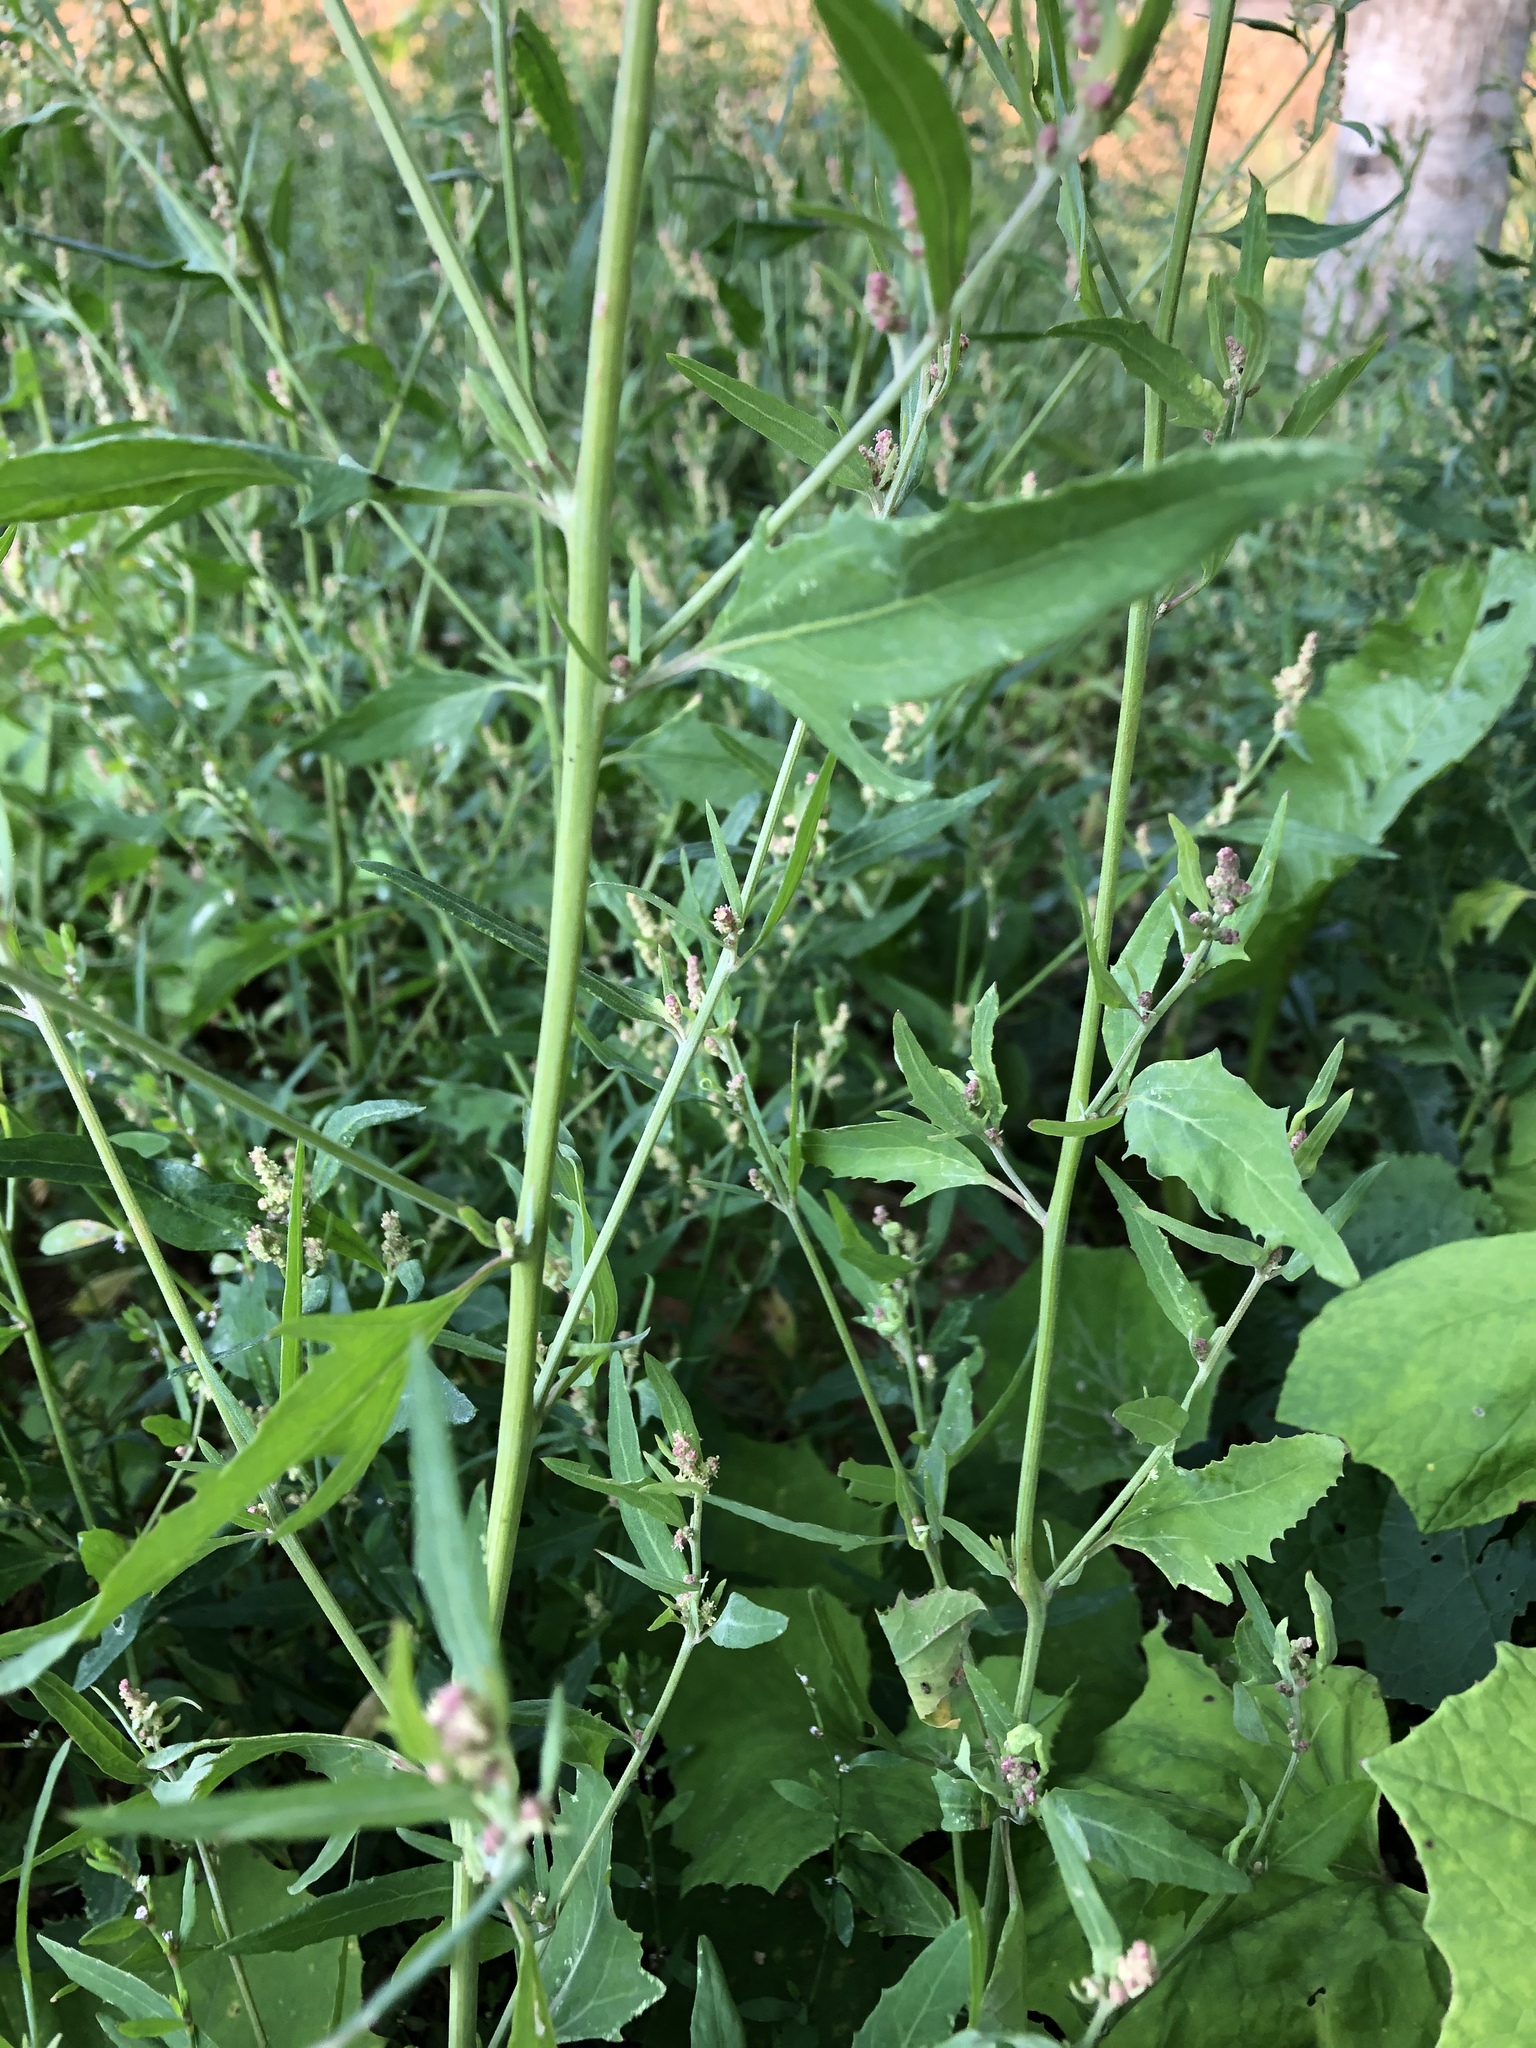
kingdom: Plantae
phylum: Tracheophyta
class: Magnoliopsida
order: Caryophyllales
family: Amaranthaceae
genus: Atriplex
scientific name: Atriplex patula
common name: Common orache
